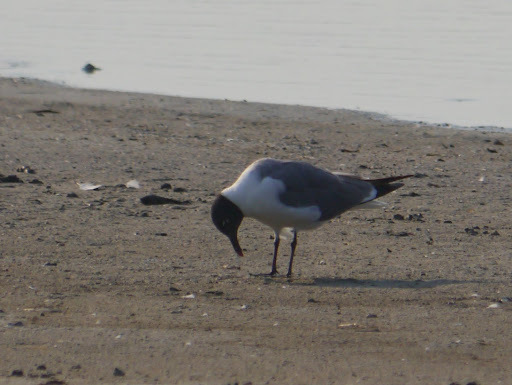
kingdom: Animalia
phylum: Chordata
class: Aves
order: Charadriiformes
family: Laridae
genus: Leucophaeus
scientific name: Leucophaeus atricilla
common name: Laughing gull
